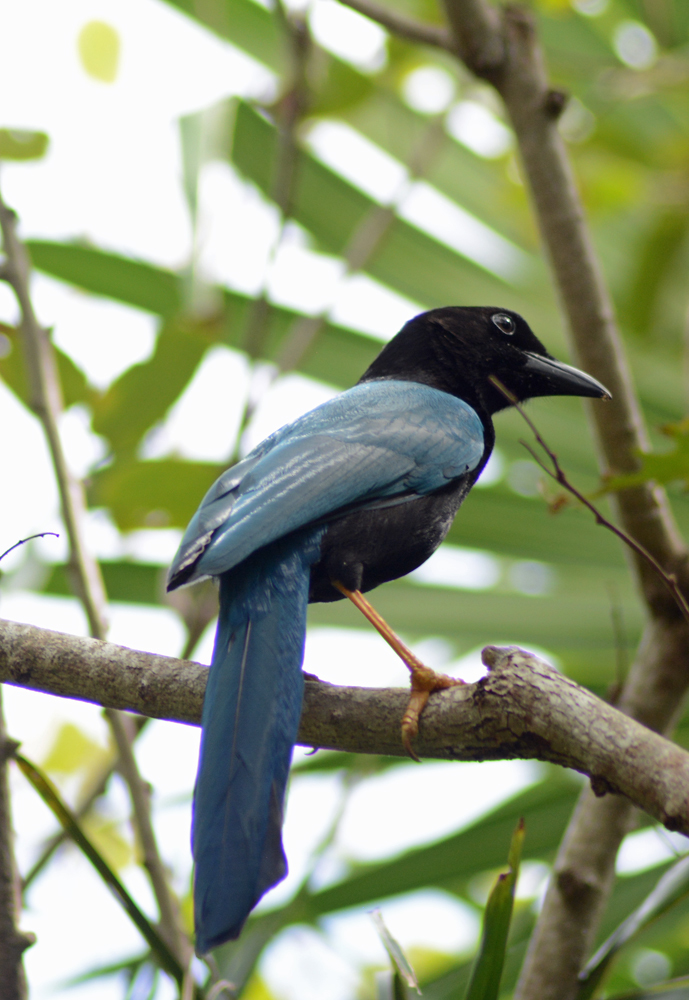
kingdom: Animalia
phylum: Chordata
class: Aves
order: Passeriformes
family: Corvidae
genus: Cyanocorax
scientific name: Cyanocorax yucatanicus
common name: Yucatan jay
